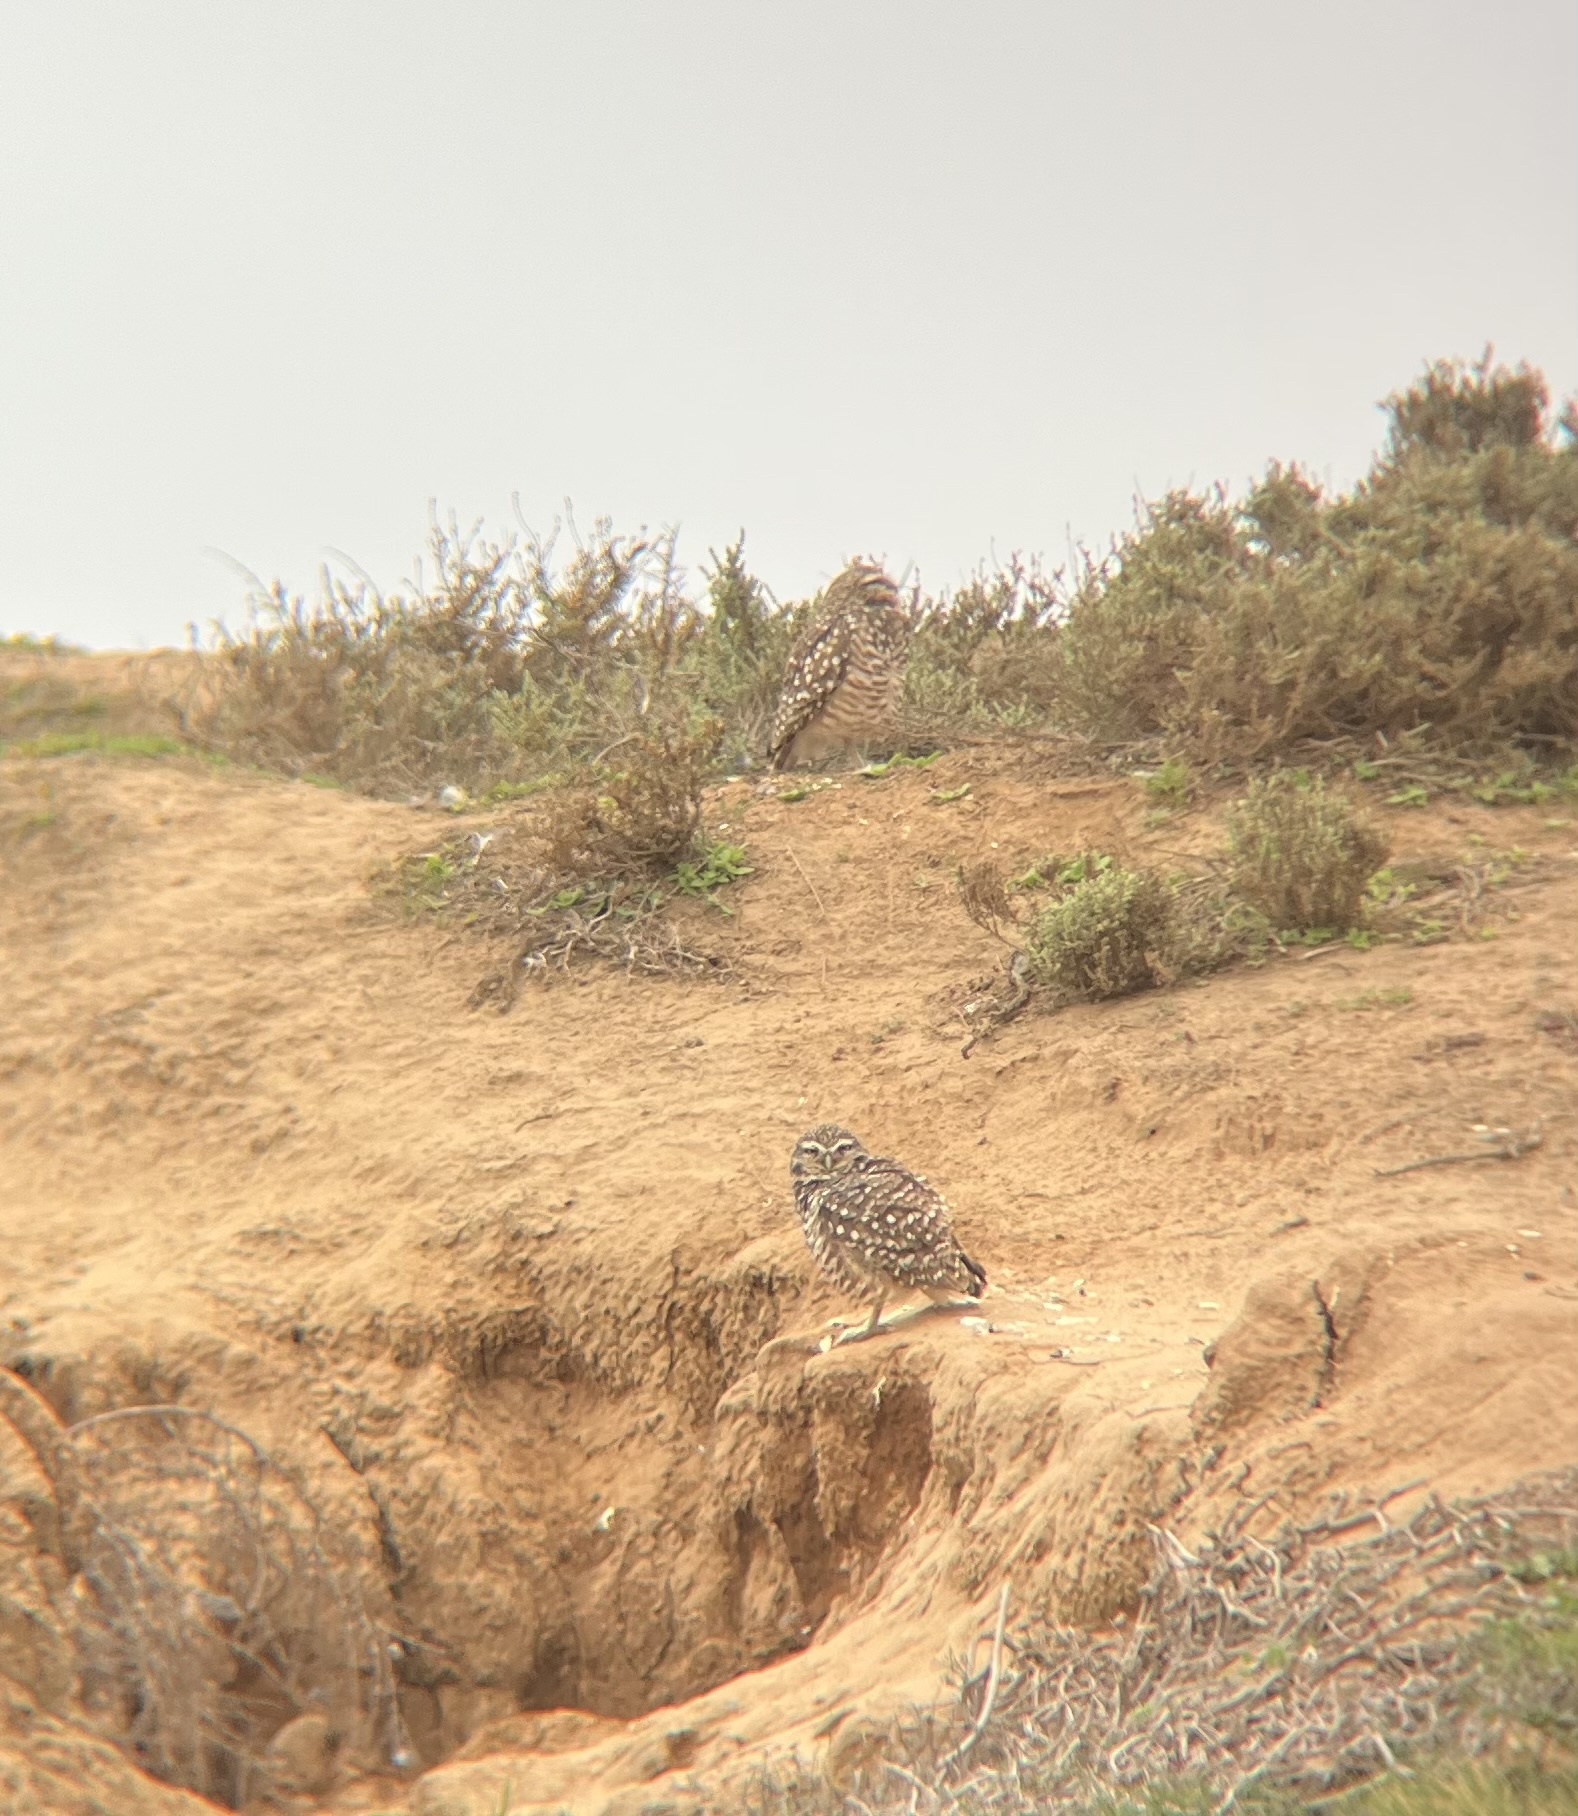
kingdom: Animalia
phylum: Chordata
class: Aves
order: Strigiformes
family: Strigidae
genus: Athene
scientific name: Athene cunicularia
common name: Burrowing owl
